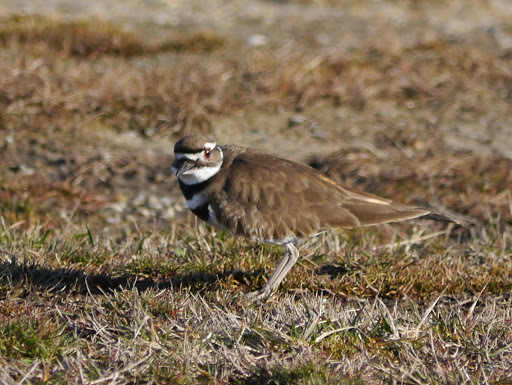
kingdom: Animalia
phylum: Chordata
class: Aves
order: Charadriiformes
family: Charadriidae
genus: Charadrius
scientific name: Charadrius vociferus
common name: Killdeer
